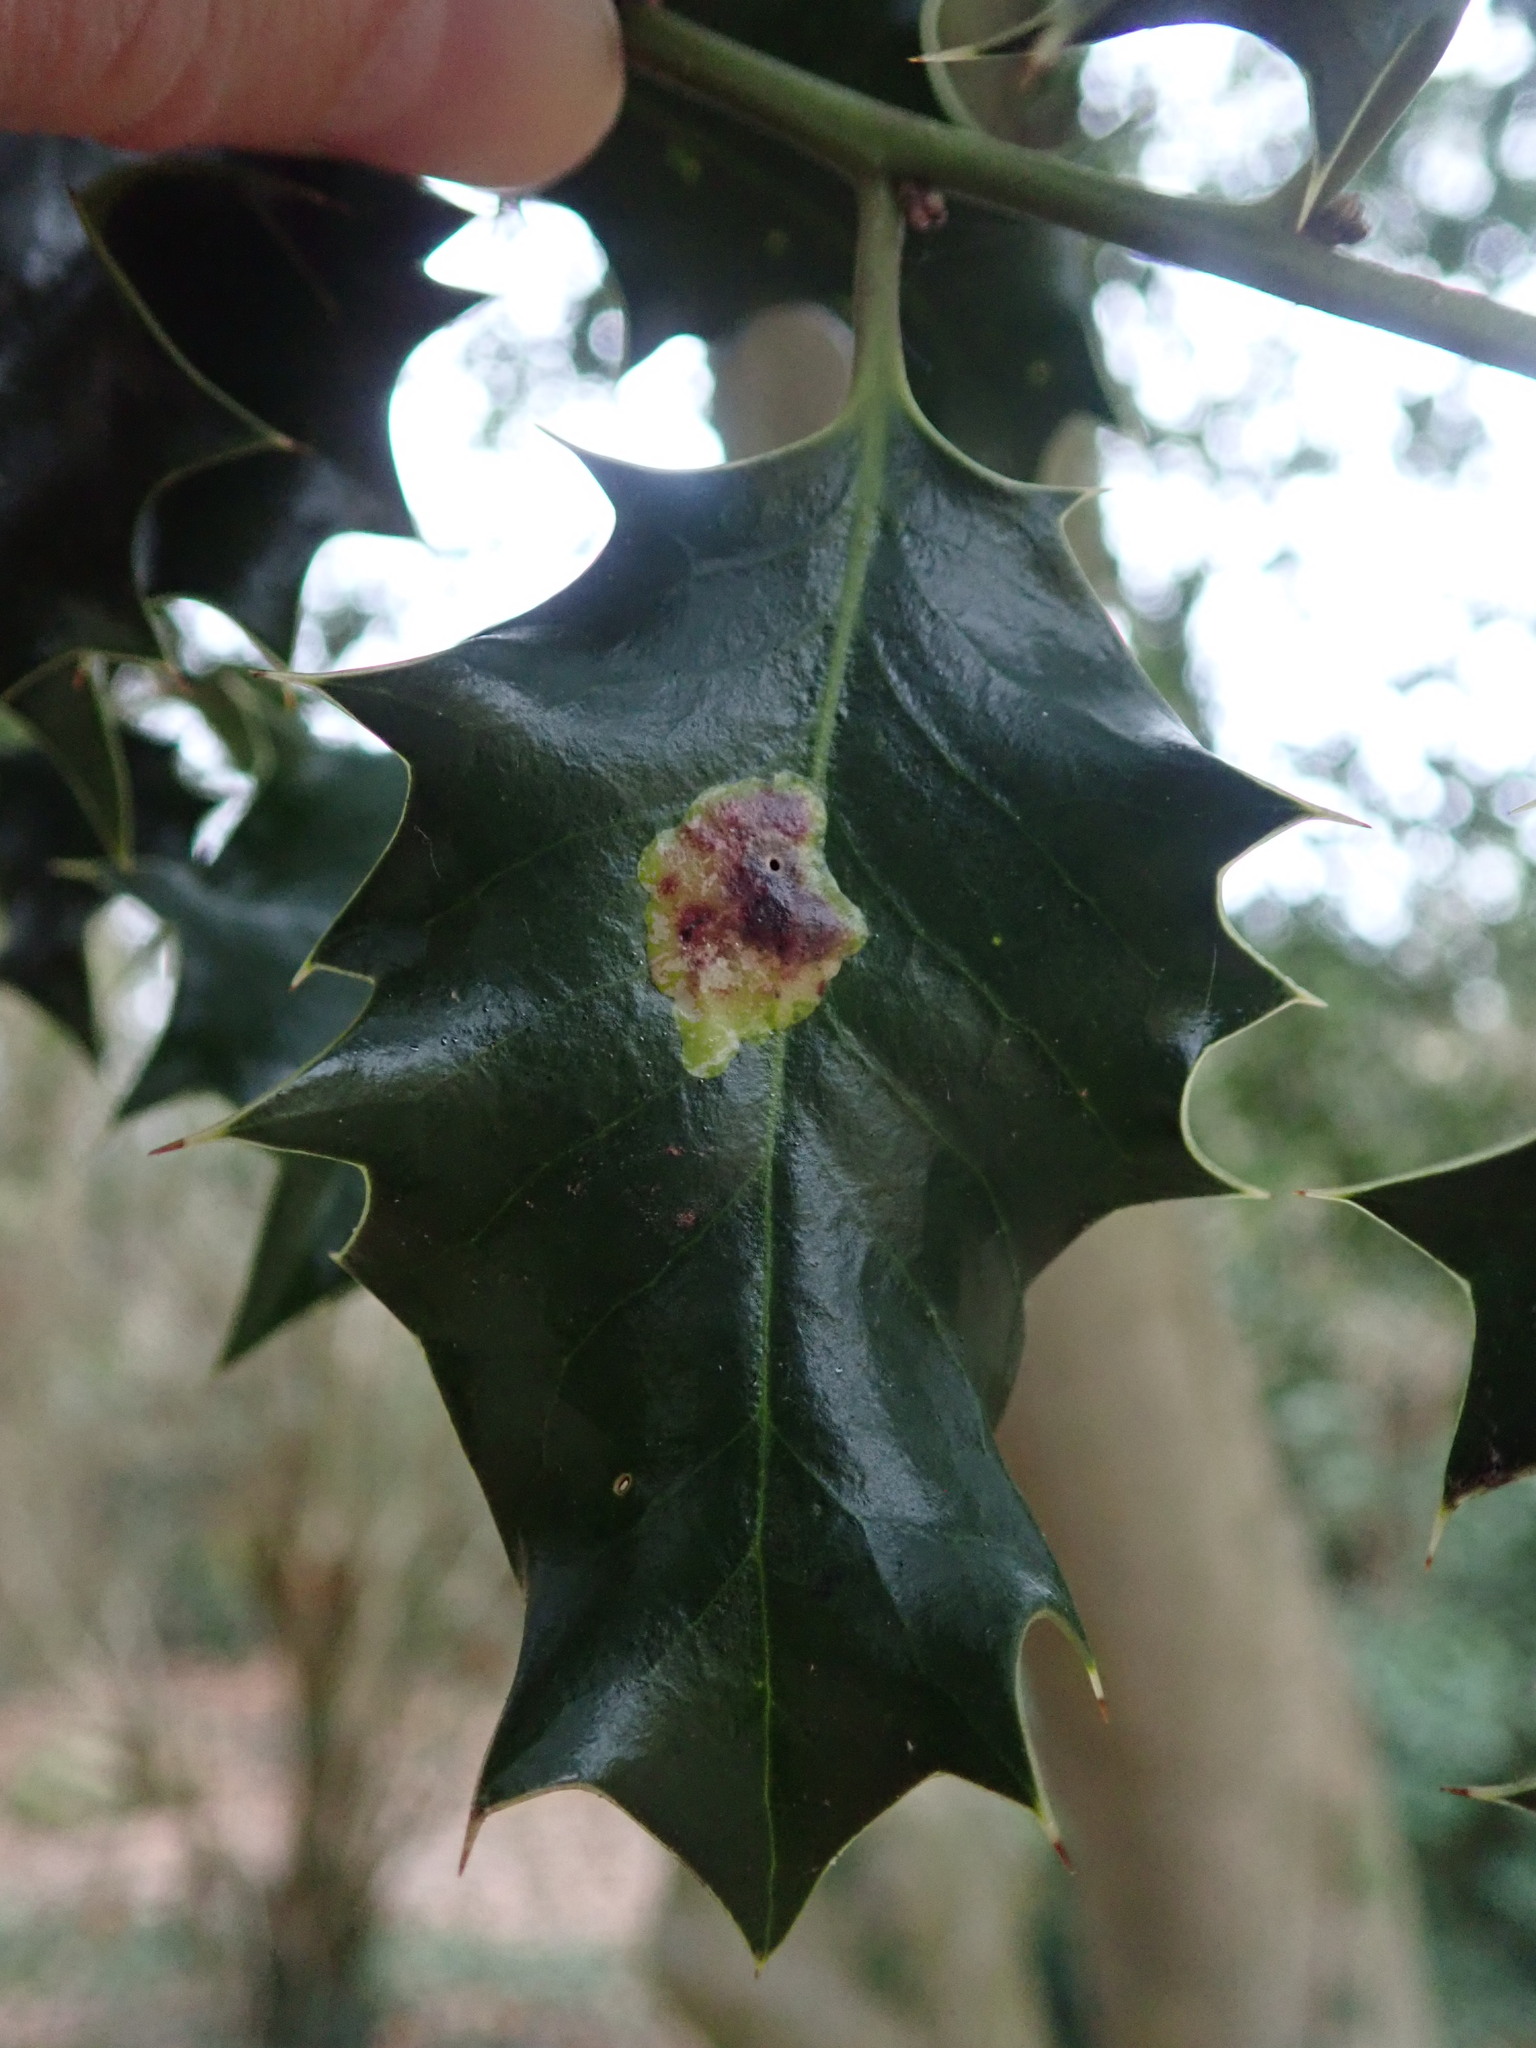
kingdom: Animalia
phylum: Arthropoda
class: Insecta
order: Diptera
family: Agromyzidae
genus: Phytomyza
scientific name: Phytomyza ilicis
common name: Holly leafminer
